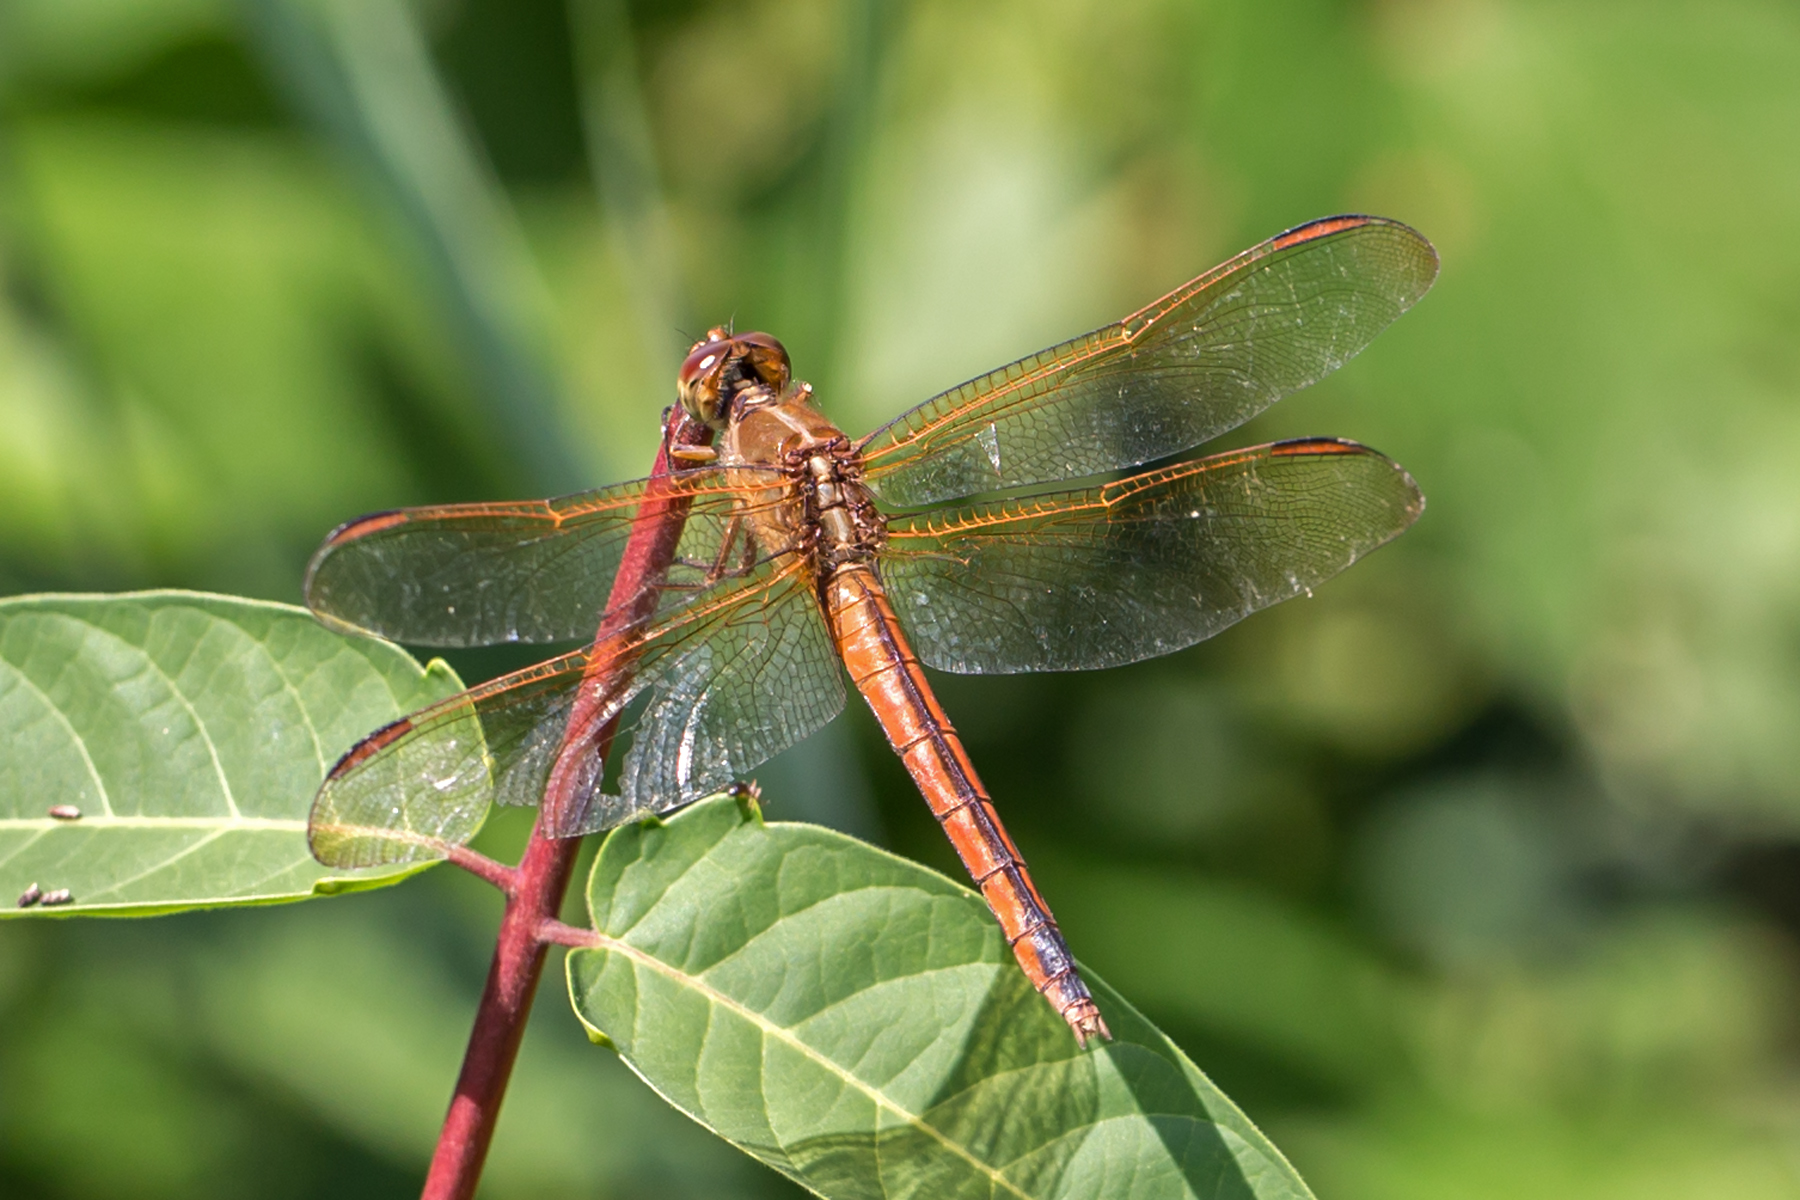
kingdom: Animalia
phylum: Arthropoda
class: Insecta
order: Odonata
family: Libellulidae
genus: Libellula
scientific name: Libellula needhami
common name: Needham's skimmer
